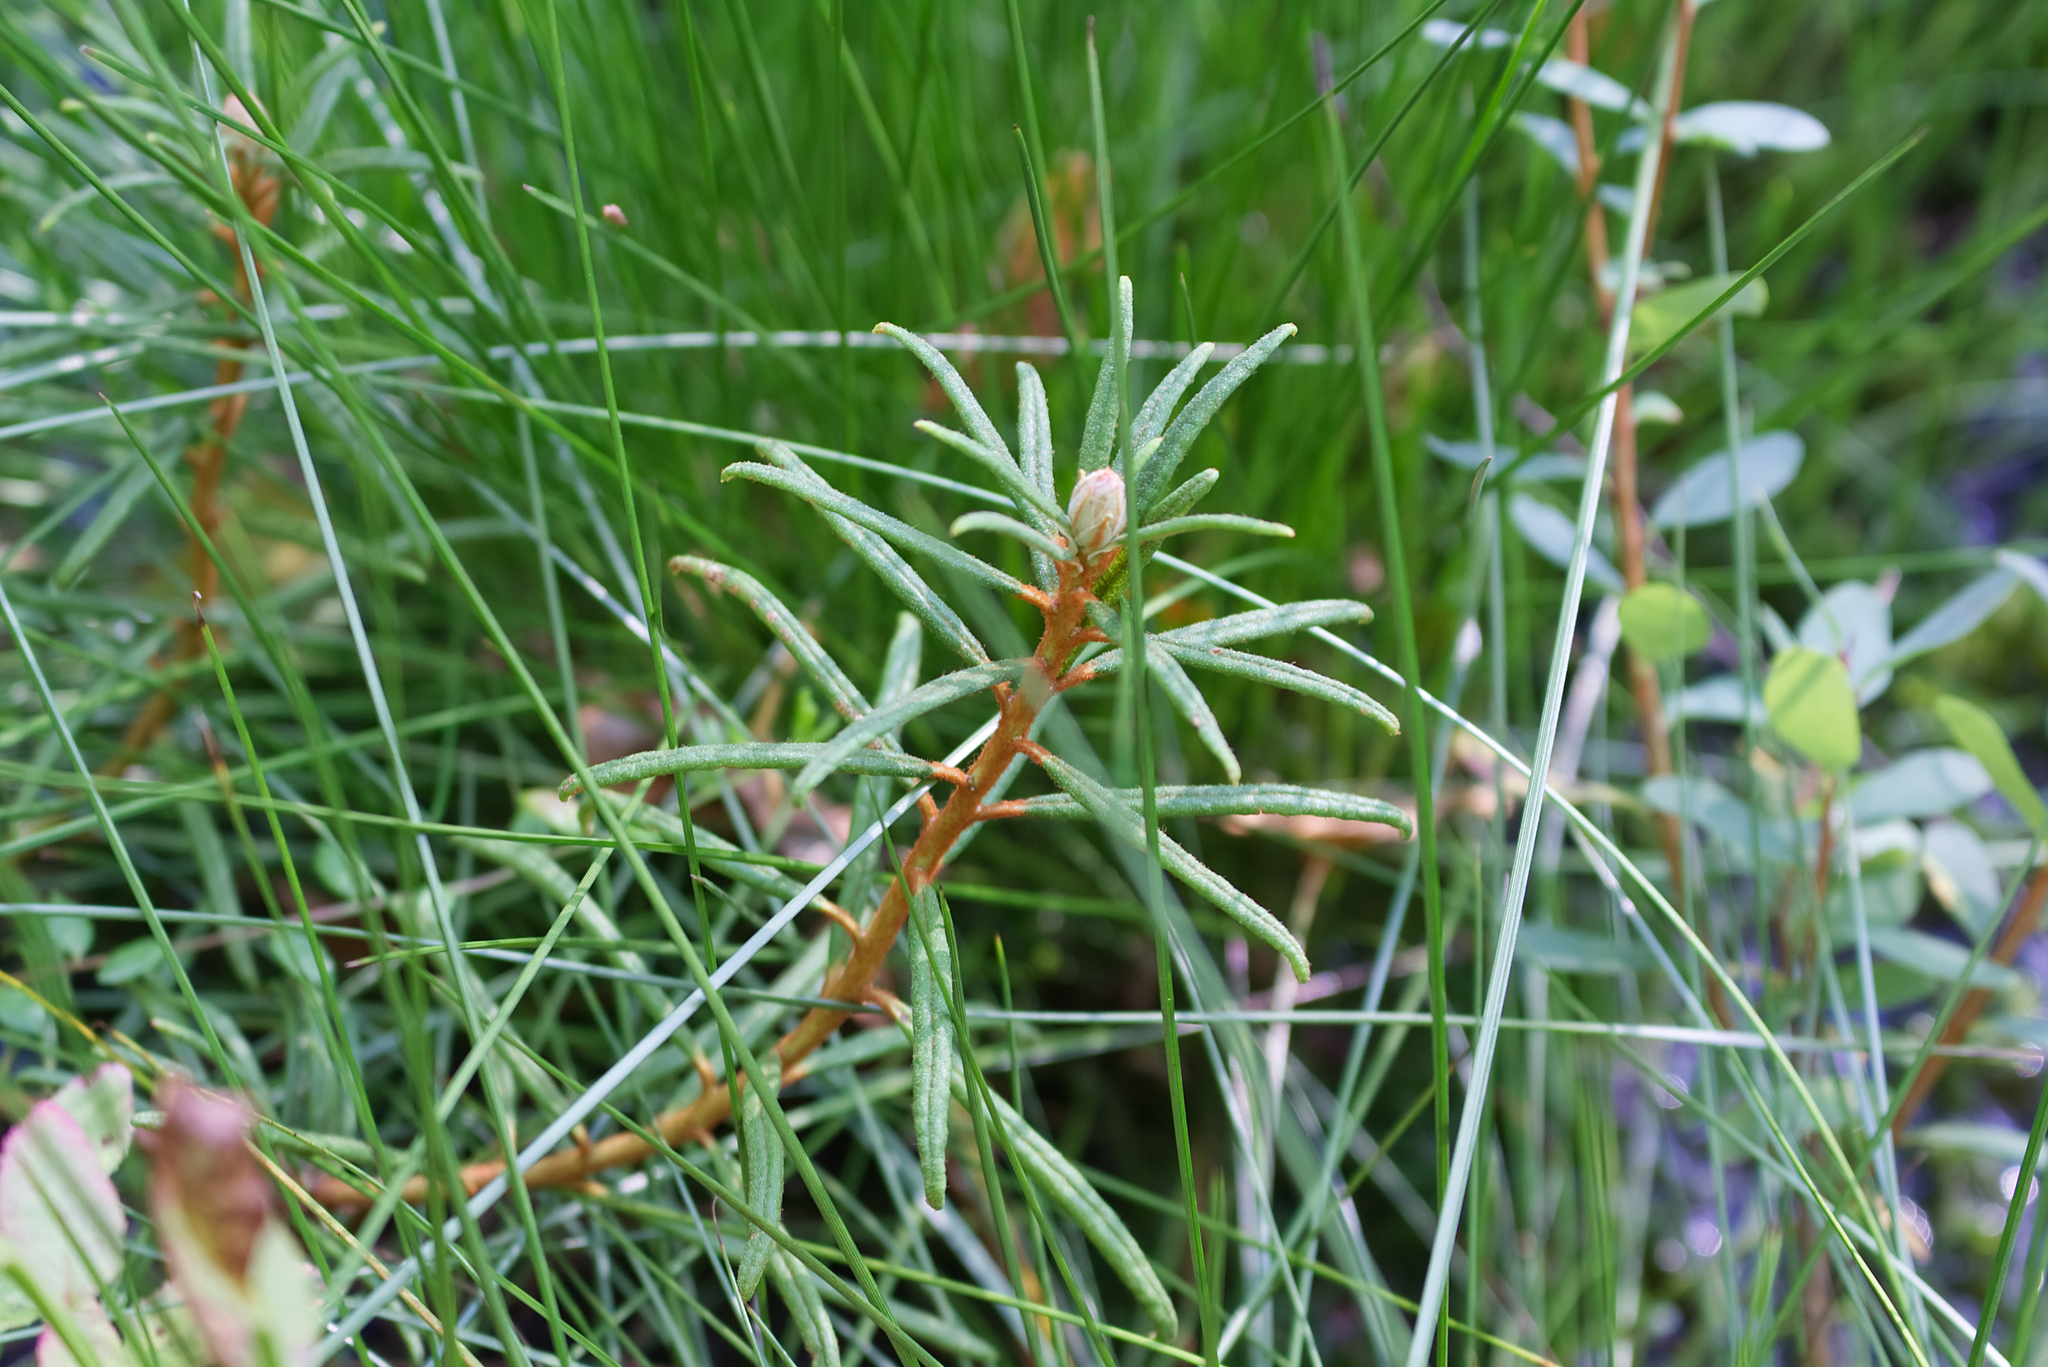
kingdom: Plantae
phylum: Tracheophyta
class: Magnoliopsida
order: Ericales
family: Ericaceae
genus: Rhododendron
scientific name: Rhododendron tomentosum
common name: Marsh labrador tea
